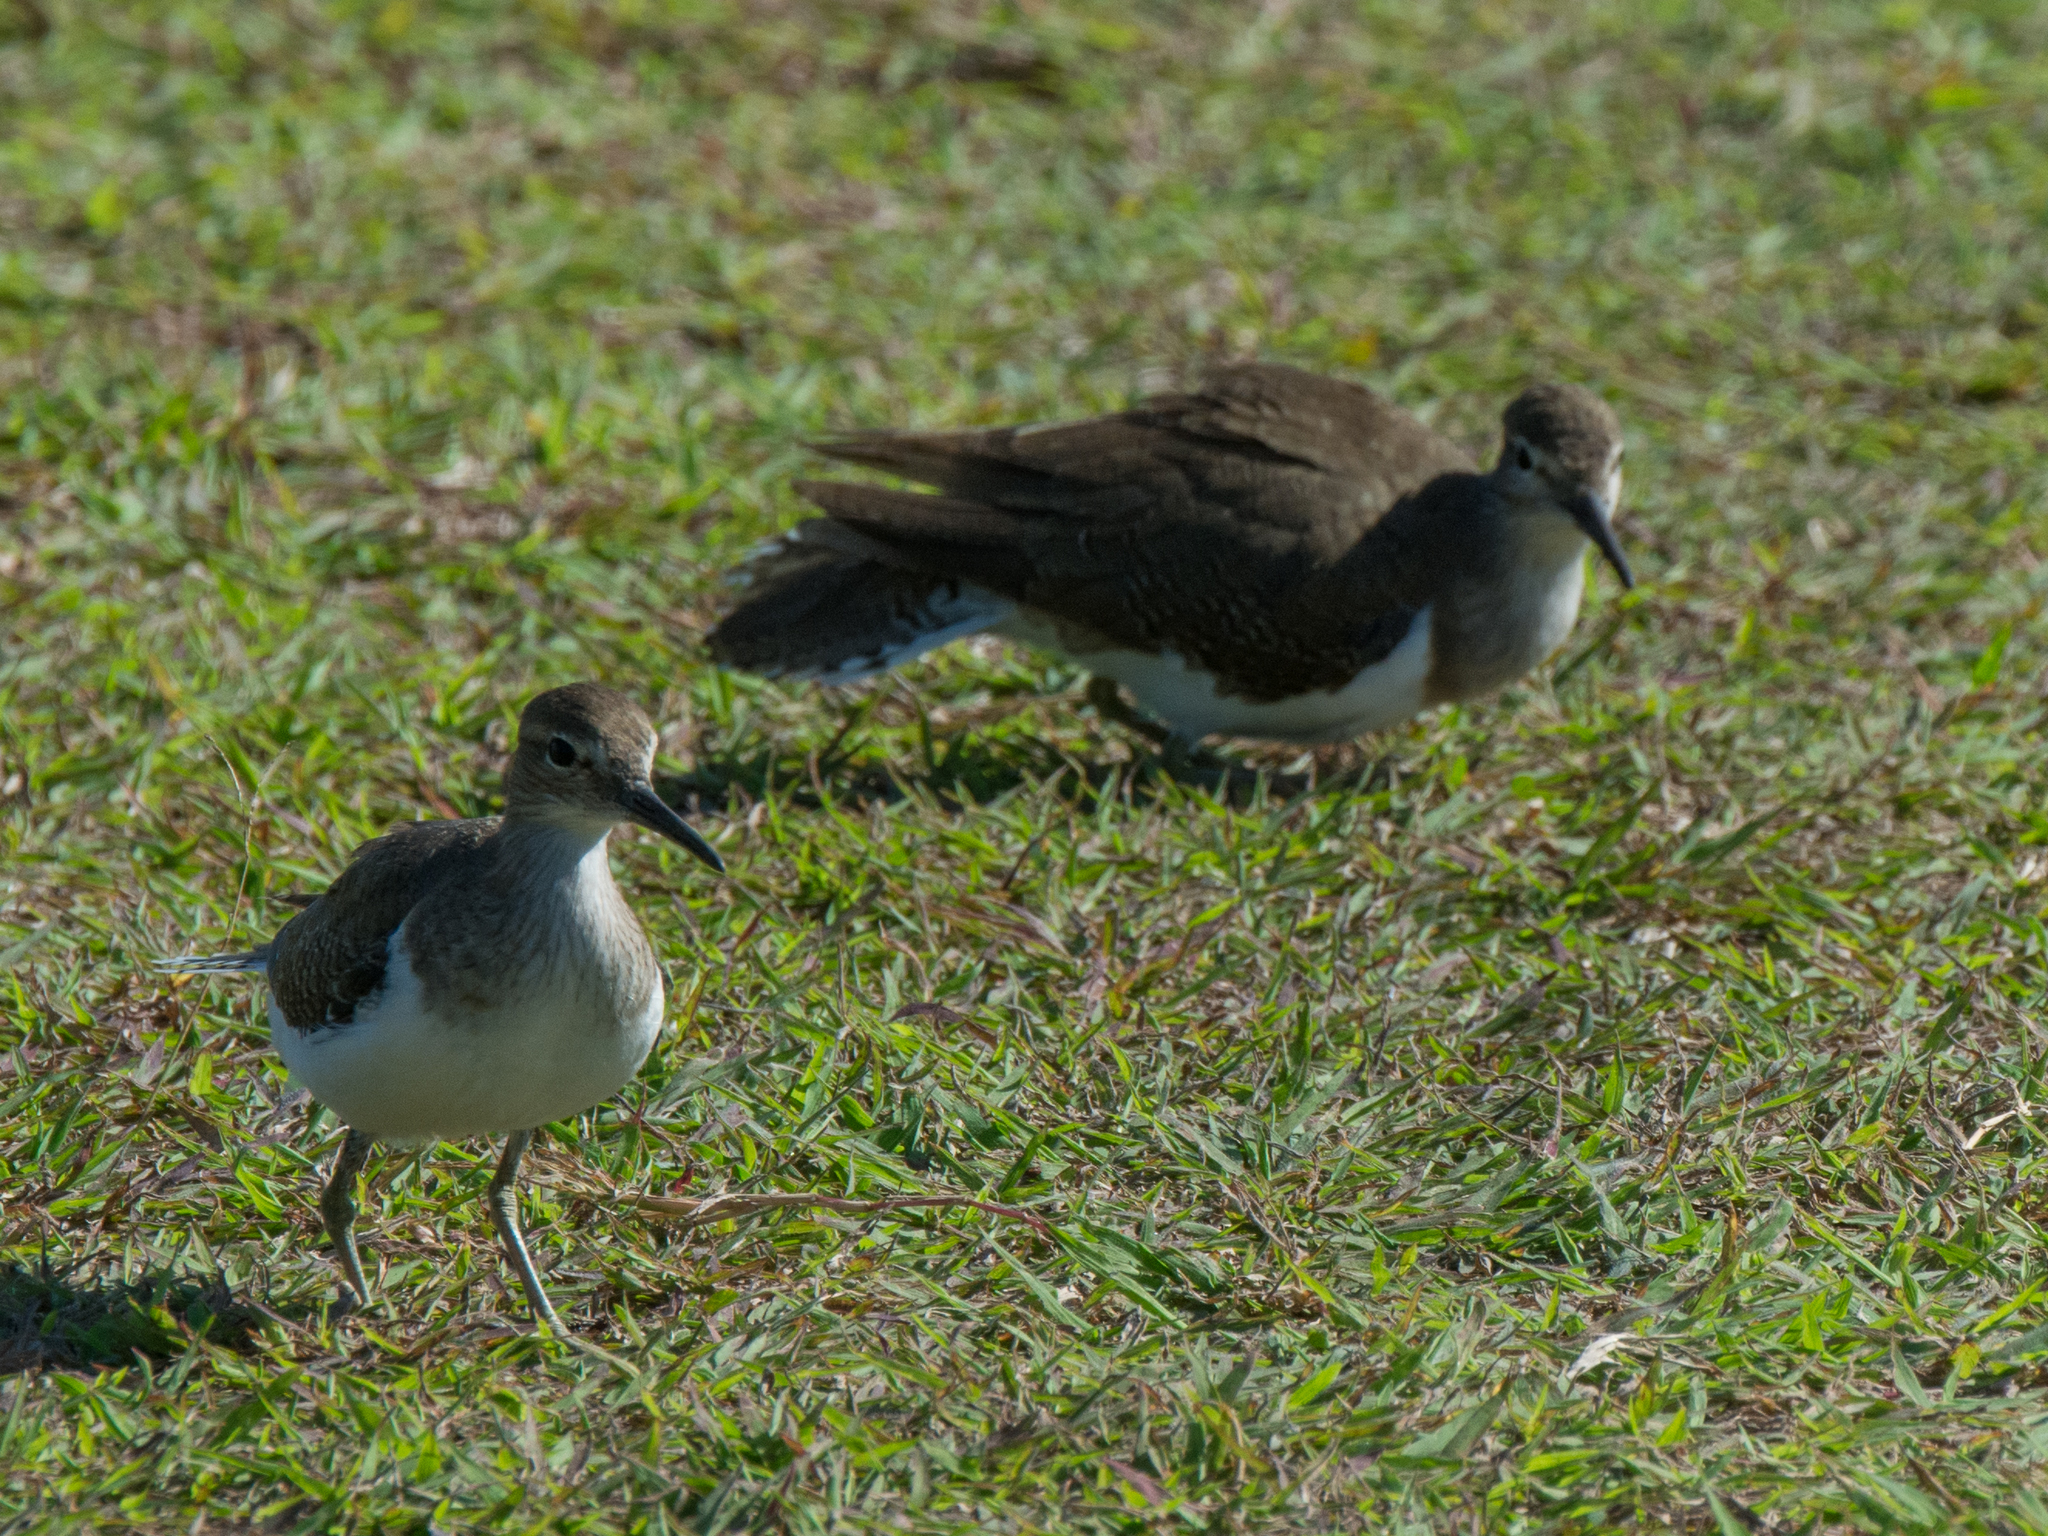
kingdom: Animalia
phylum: Chordata
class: Aves
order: Charadriiformes
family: Scolopacidae
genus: Actitis
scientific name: Actitis hypoleucos
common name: Common sandpiper
